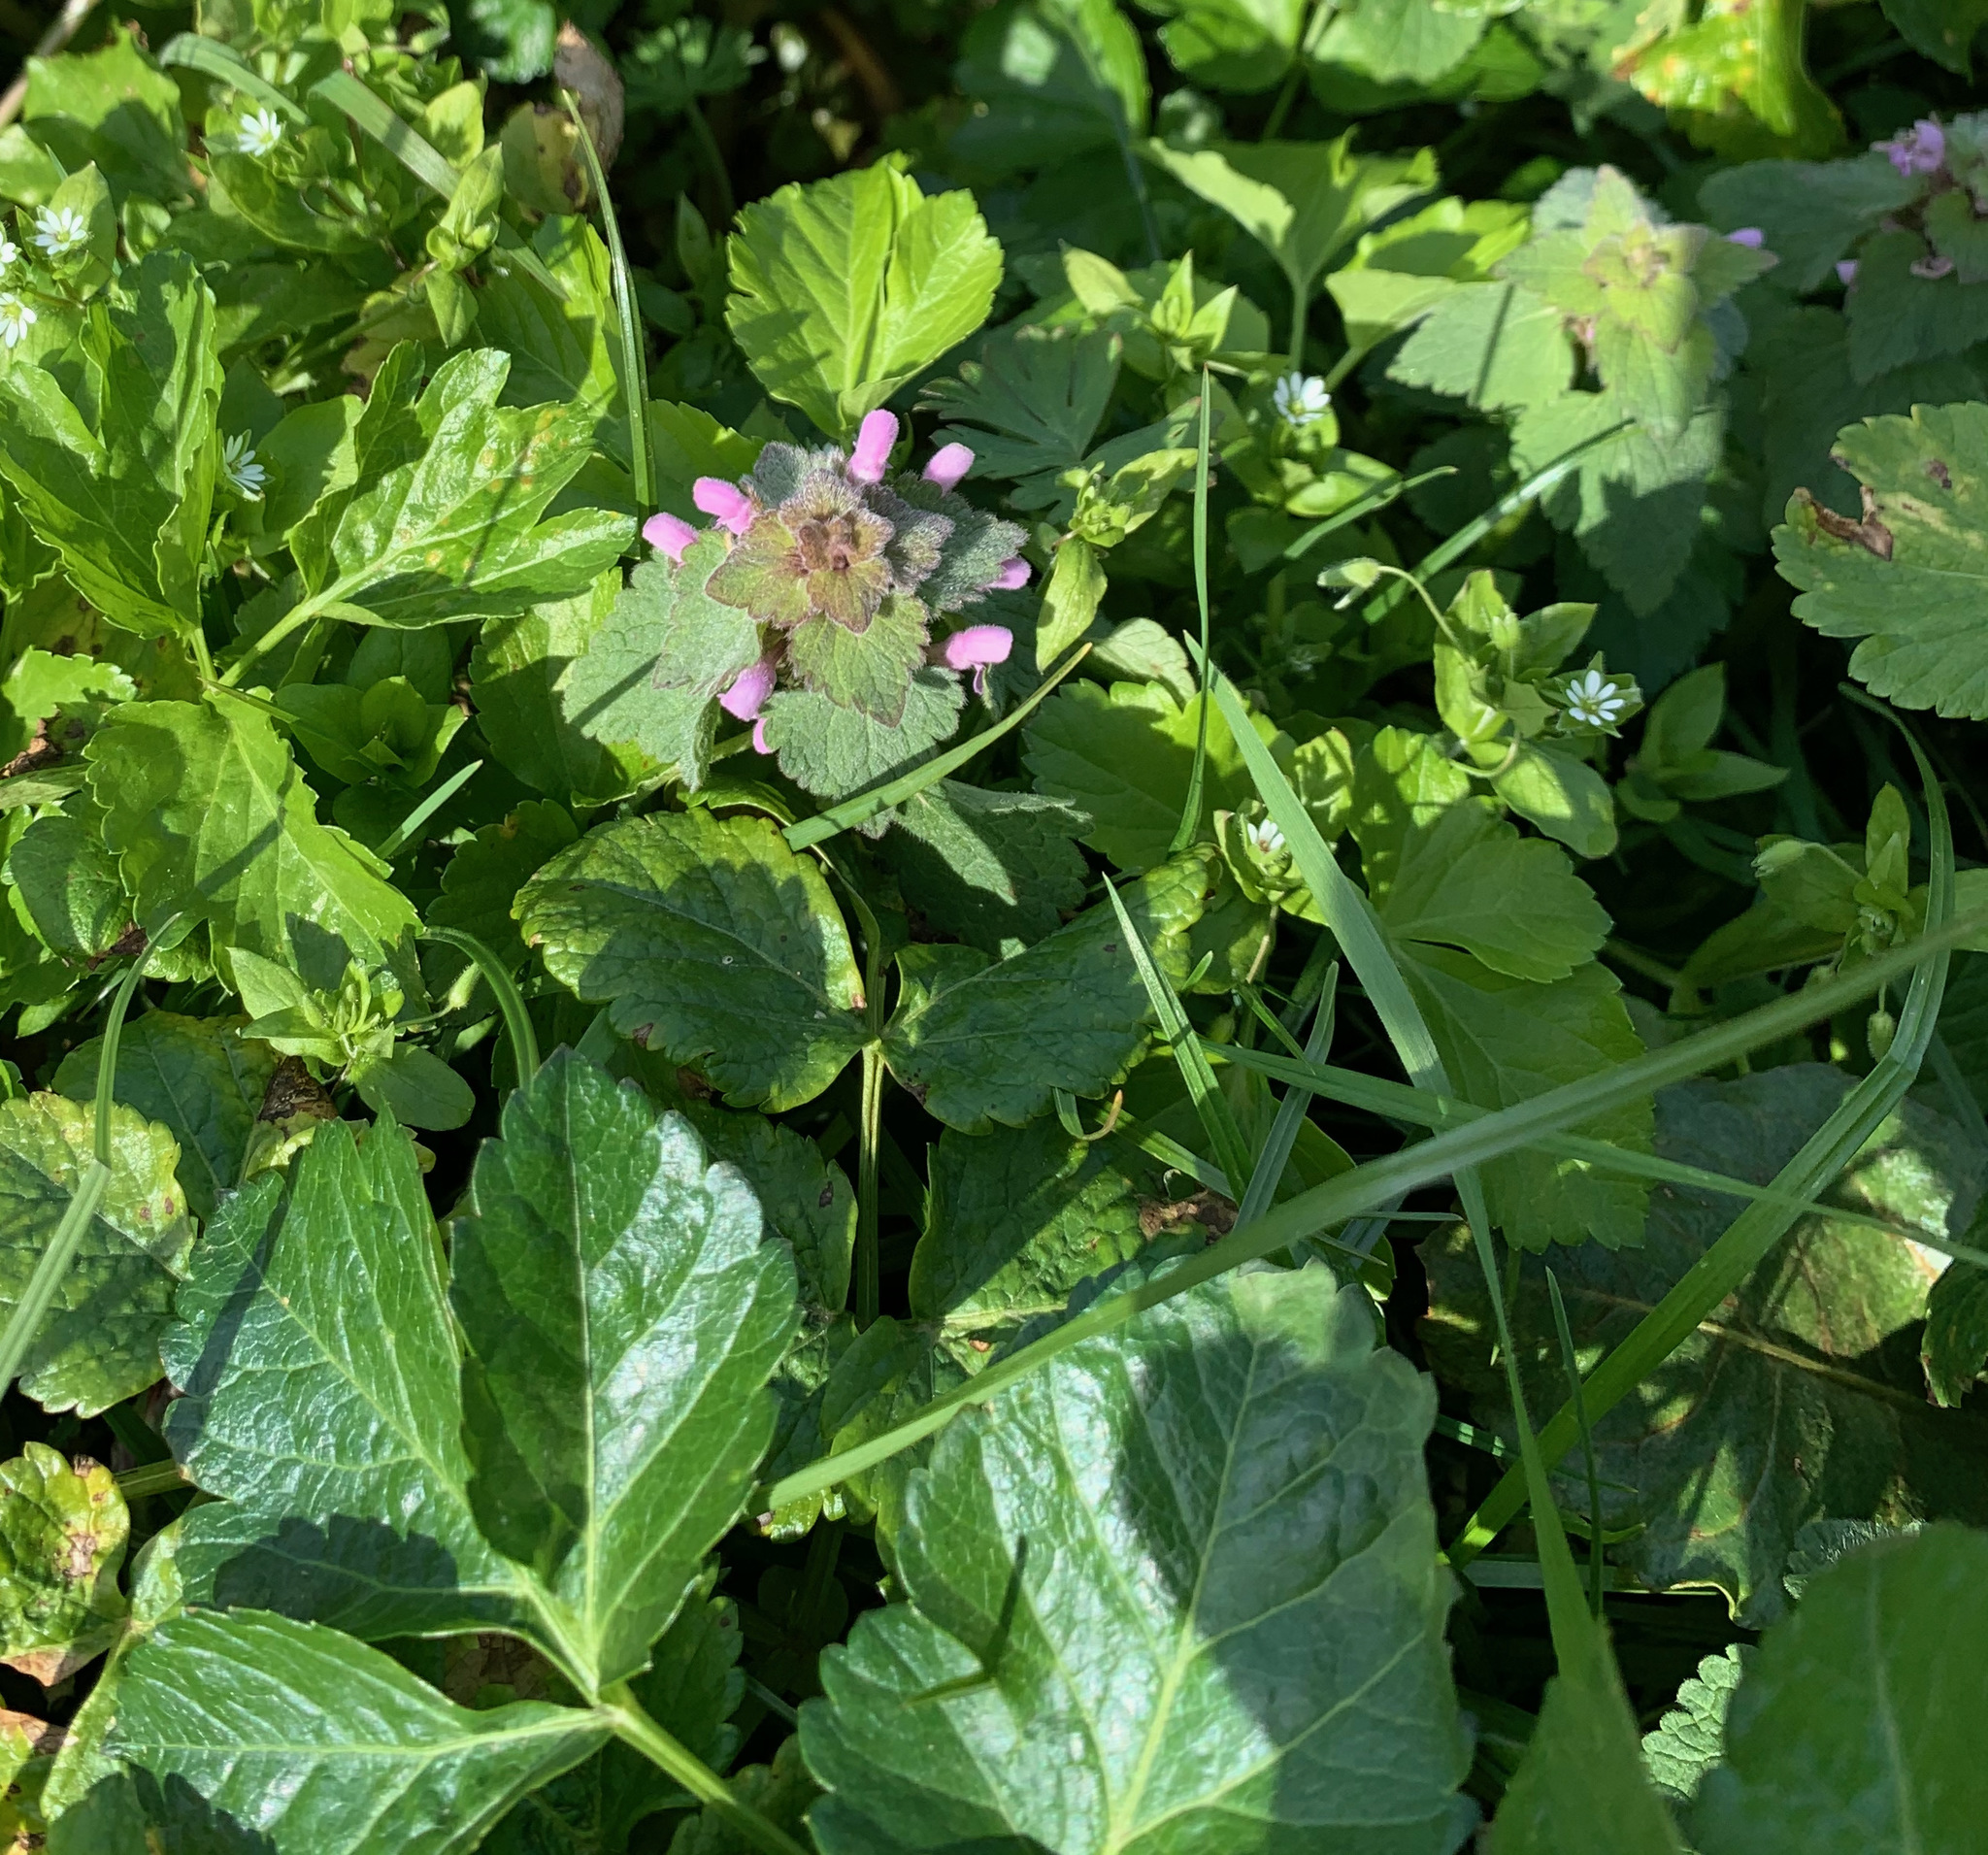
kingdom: Plantae
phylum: Tracheophyta
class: Magnoliopsida
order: Lamiales
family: Lamiaceae
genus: Lamium
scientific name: Lamium purpureum
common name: Red dead-nettle
